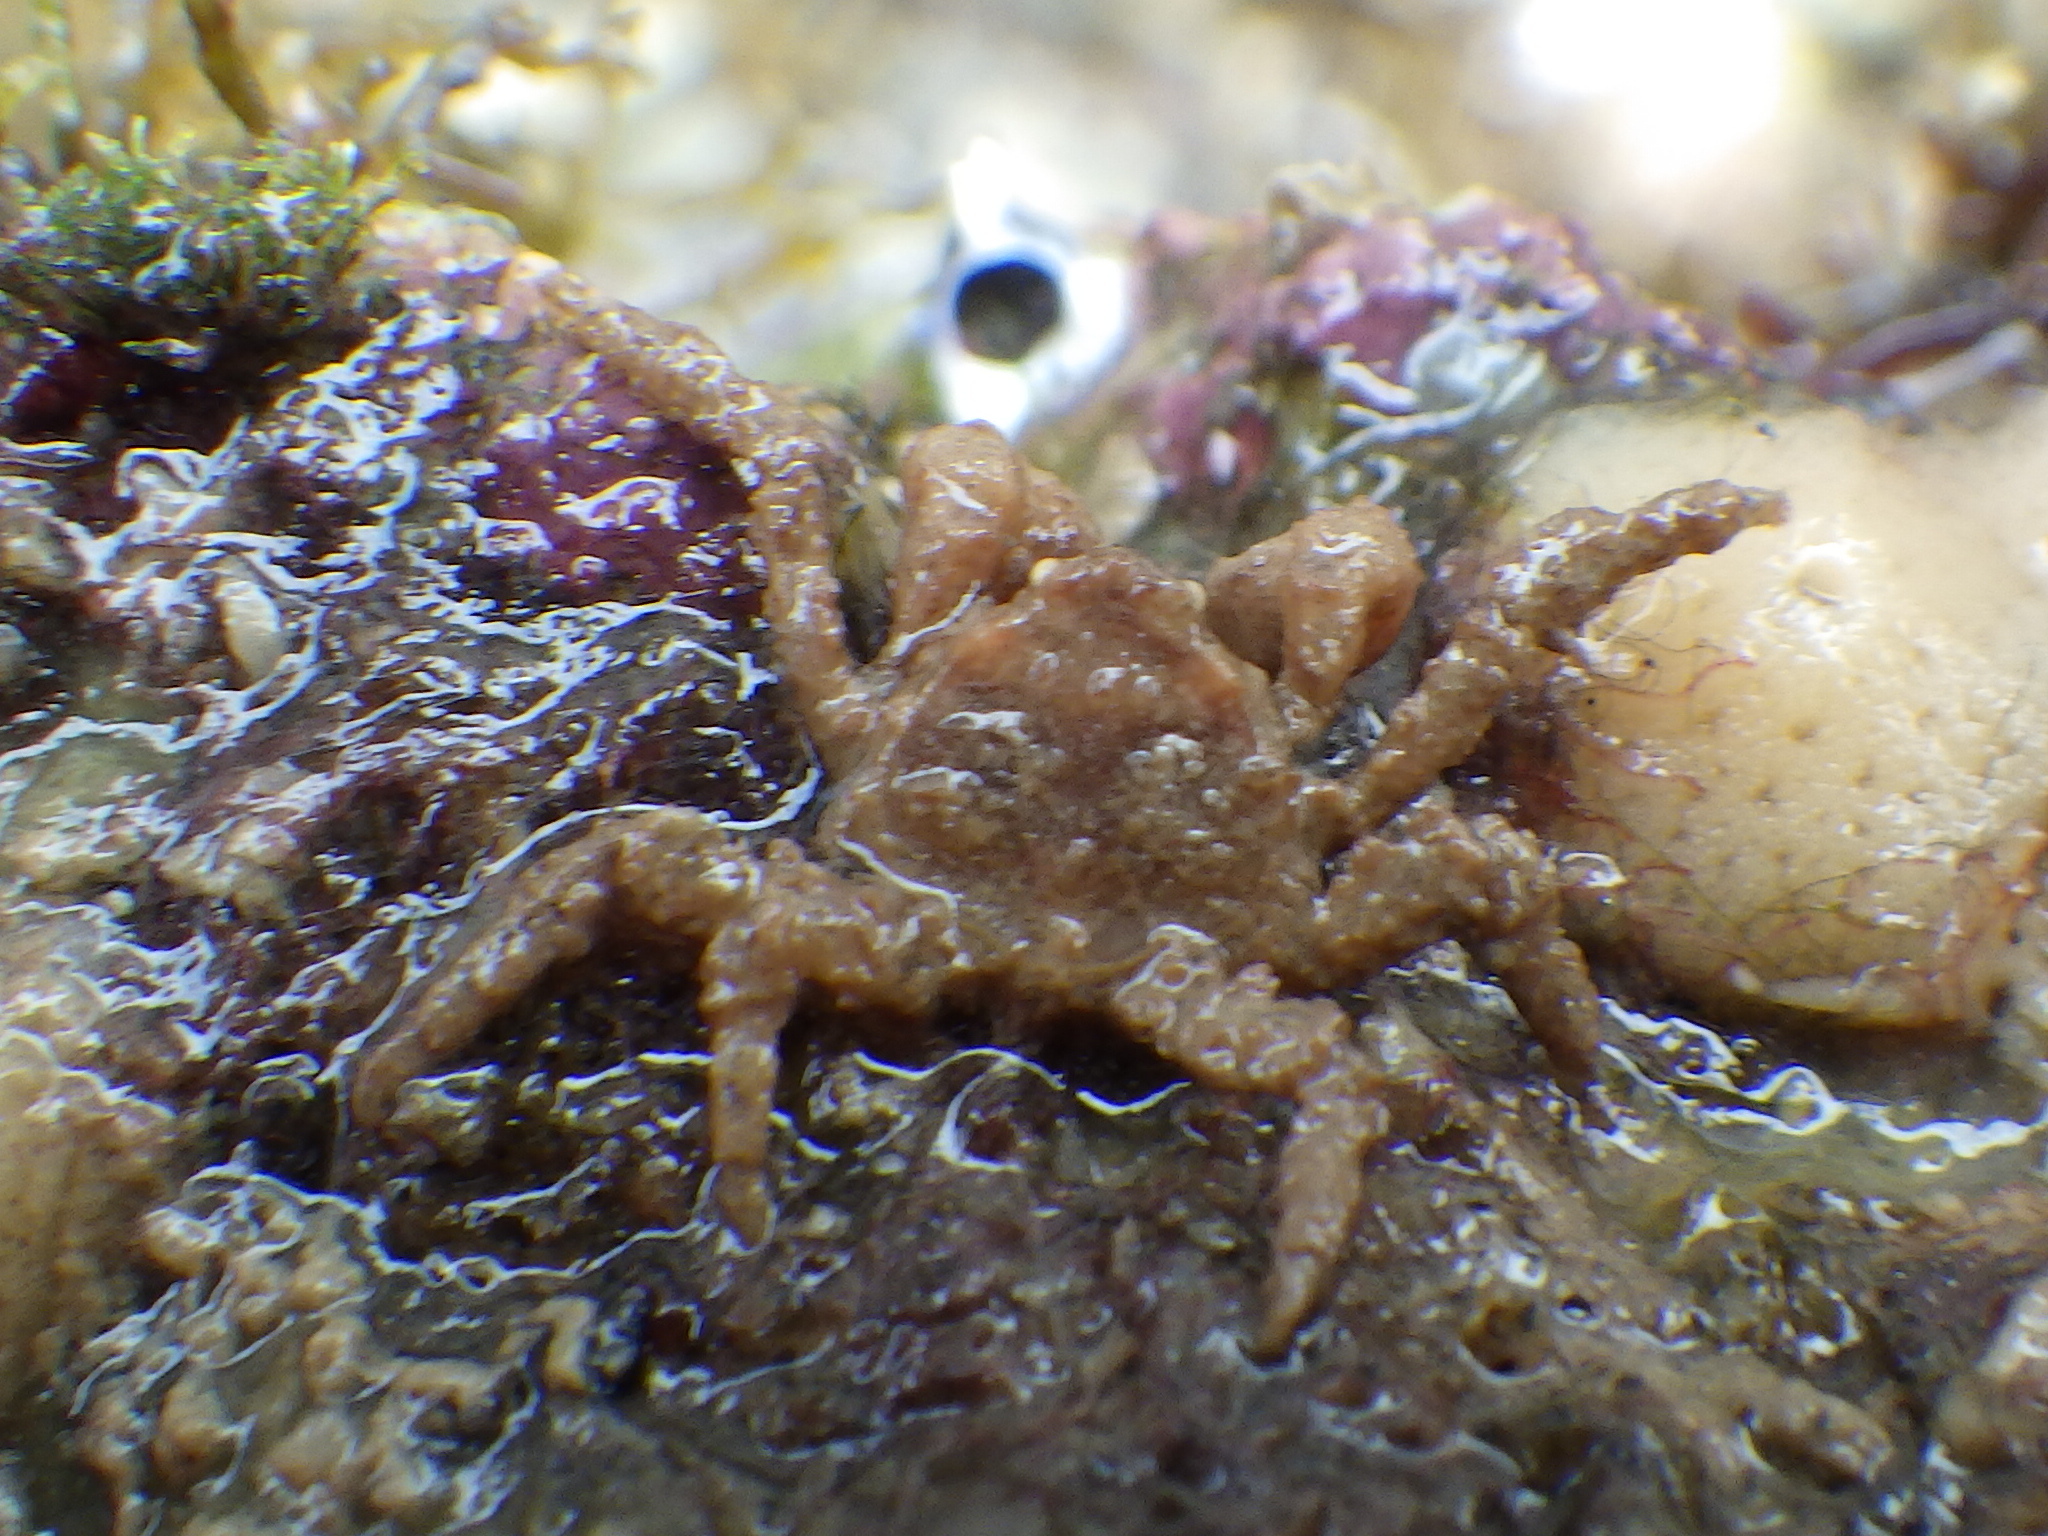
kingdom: Animalia
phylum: Arthropoda
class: Malacostraca
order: Decapoda
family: Hymenosomatidae
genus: Neohymenicus
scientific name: Neohymenicus pubescens
